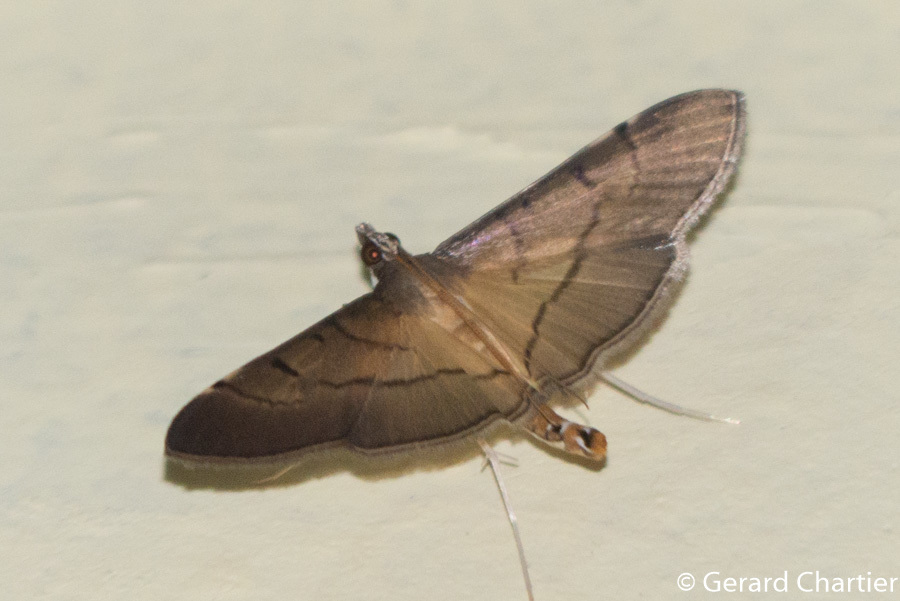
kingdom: Animalia
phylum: Arthropoda
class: Insecta
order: Lepidoptera
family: Crambidae
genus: Bacotoma
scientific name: Bacotoma camillusalis
